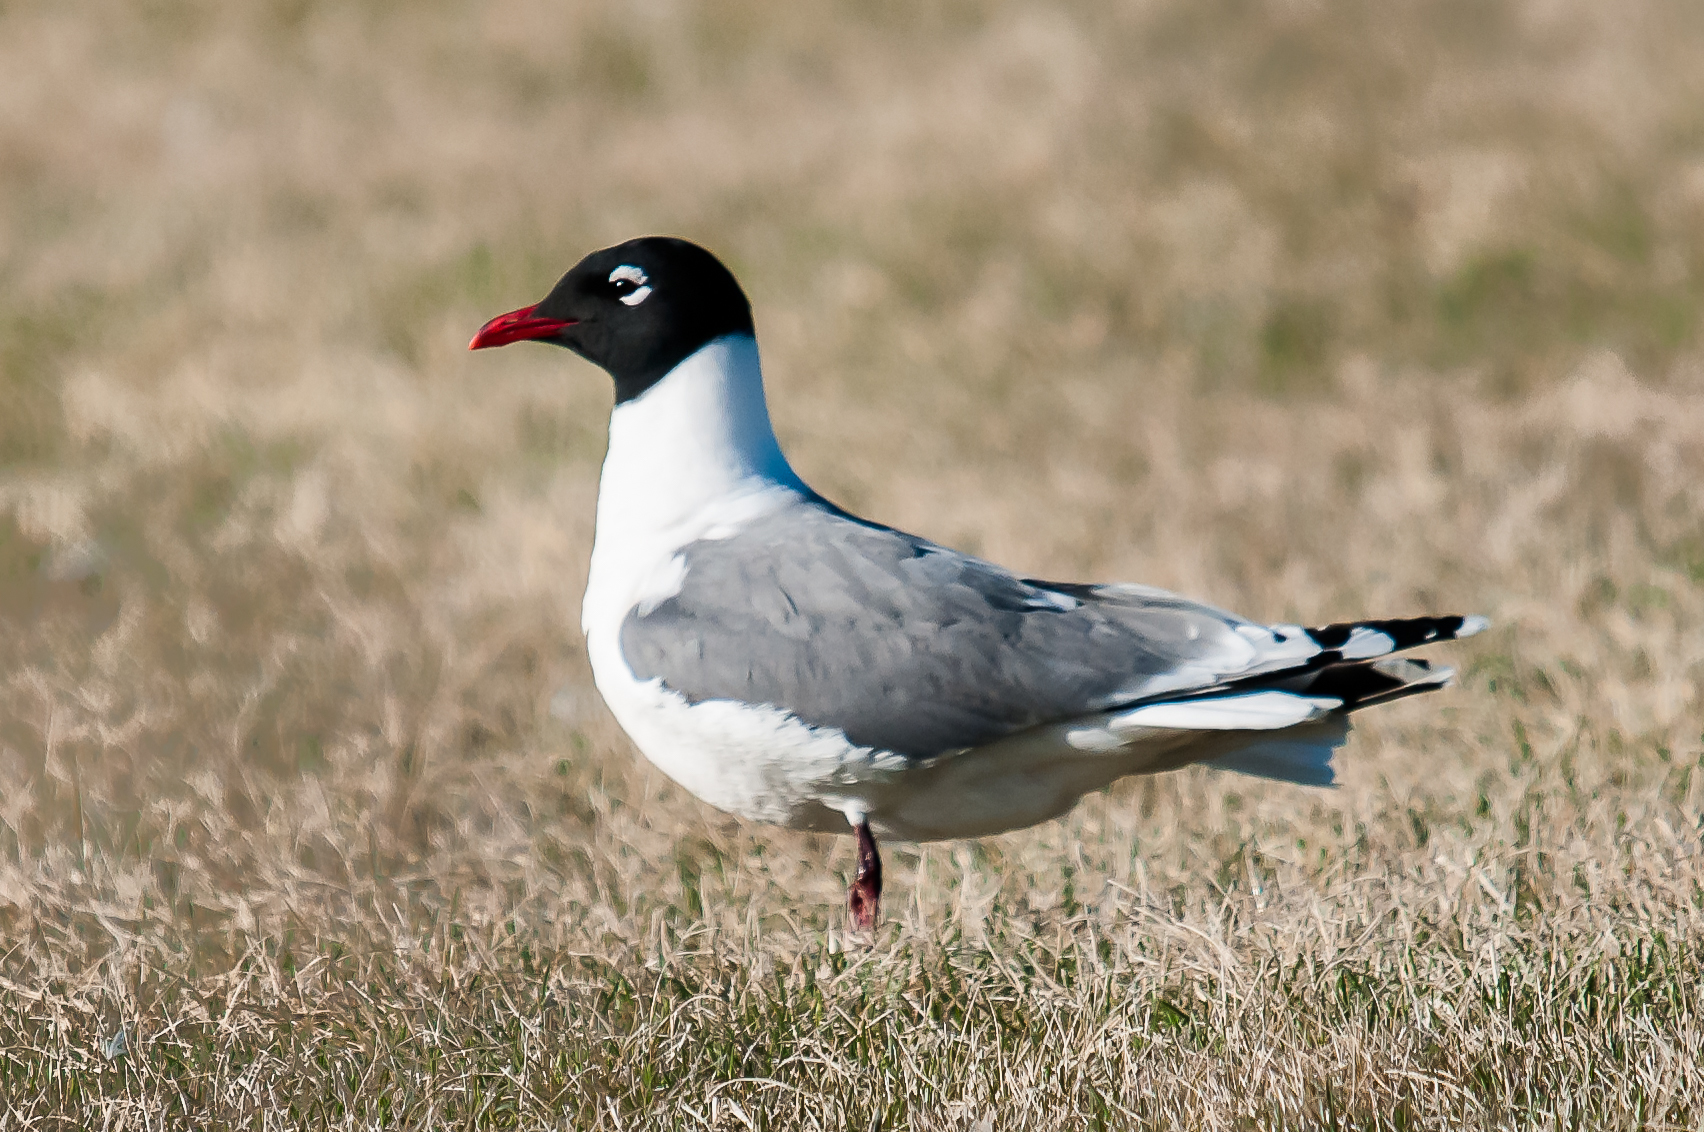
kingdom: Animalia
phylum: Chordata
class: Aves
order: Charadriiformes
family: Laridae
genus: Leucophaeus
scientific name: Leucophaeus pipixcan
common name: Franklin's gull
